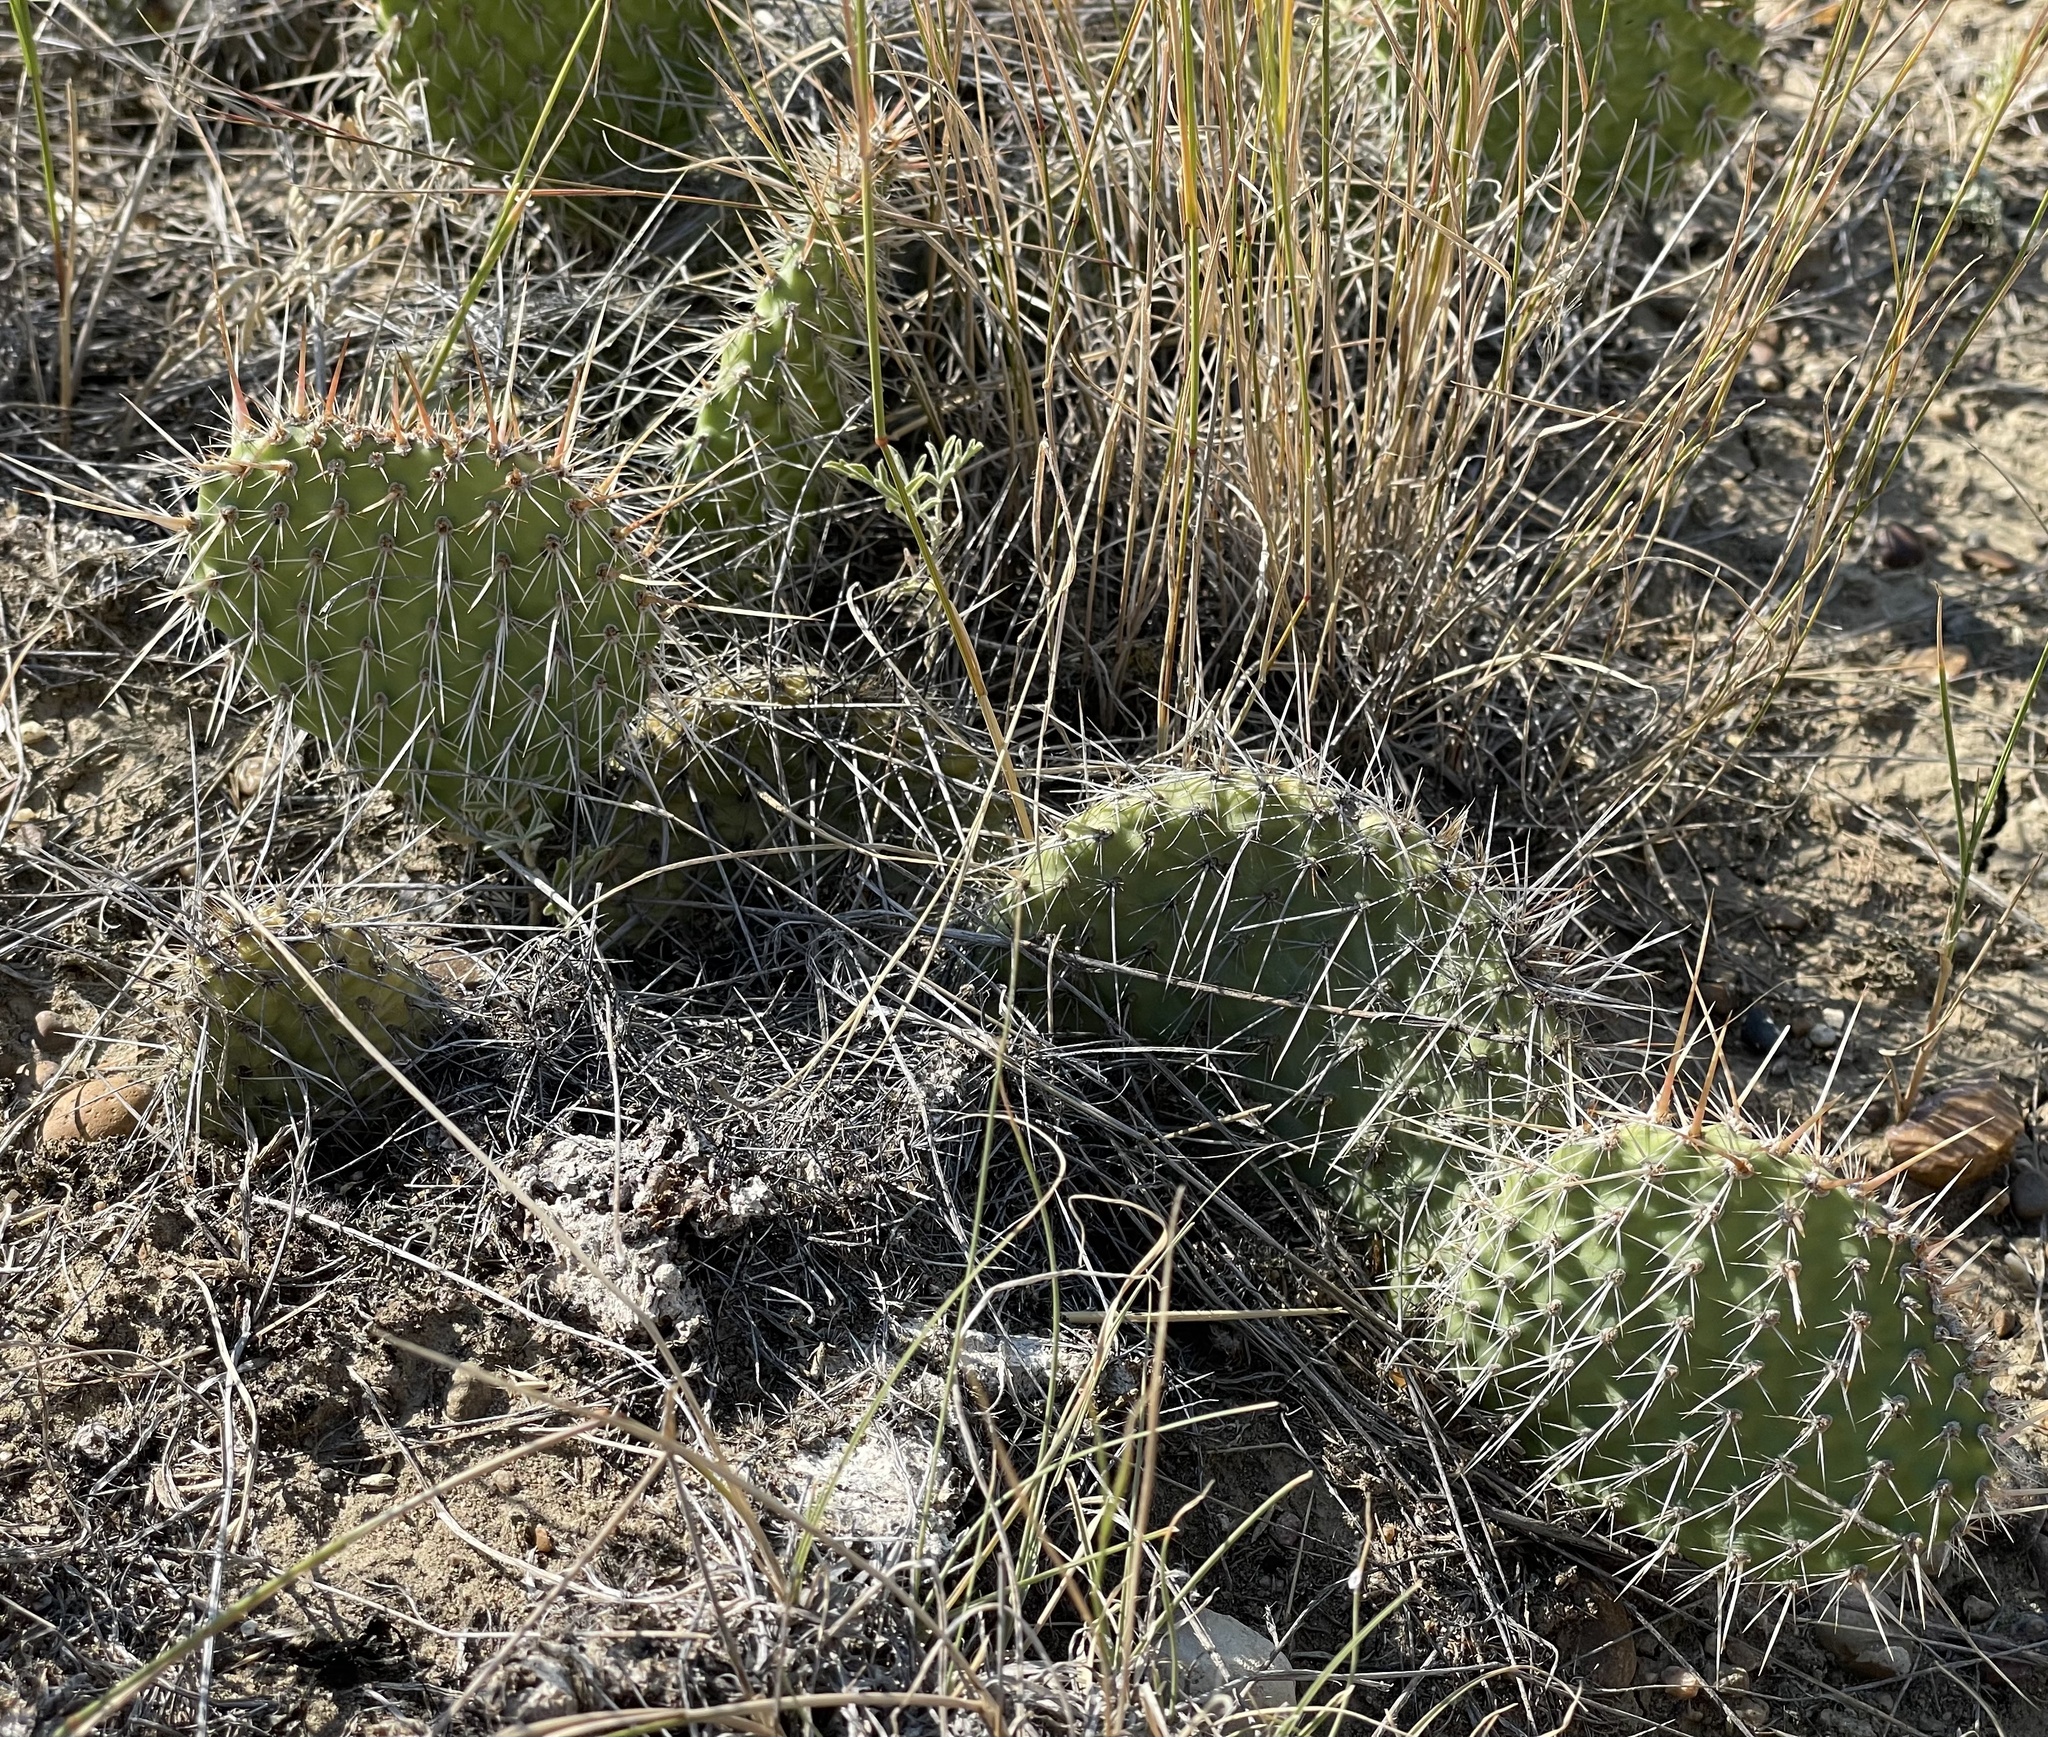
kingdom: Plantae
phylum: Tracheophyta
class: Magnoliopsida
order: Caryophyllales
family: Cactaceae
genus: Opuntia
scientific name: Opuntia polyacantha
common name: Plains prickly-pear
